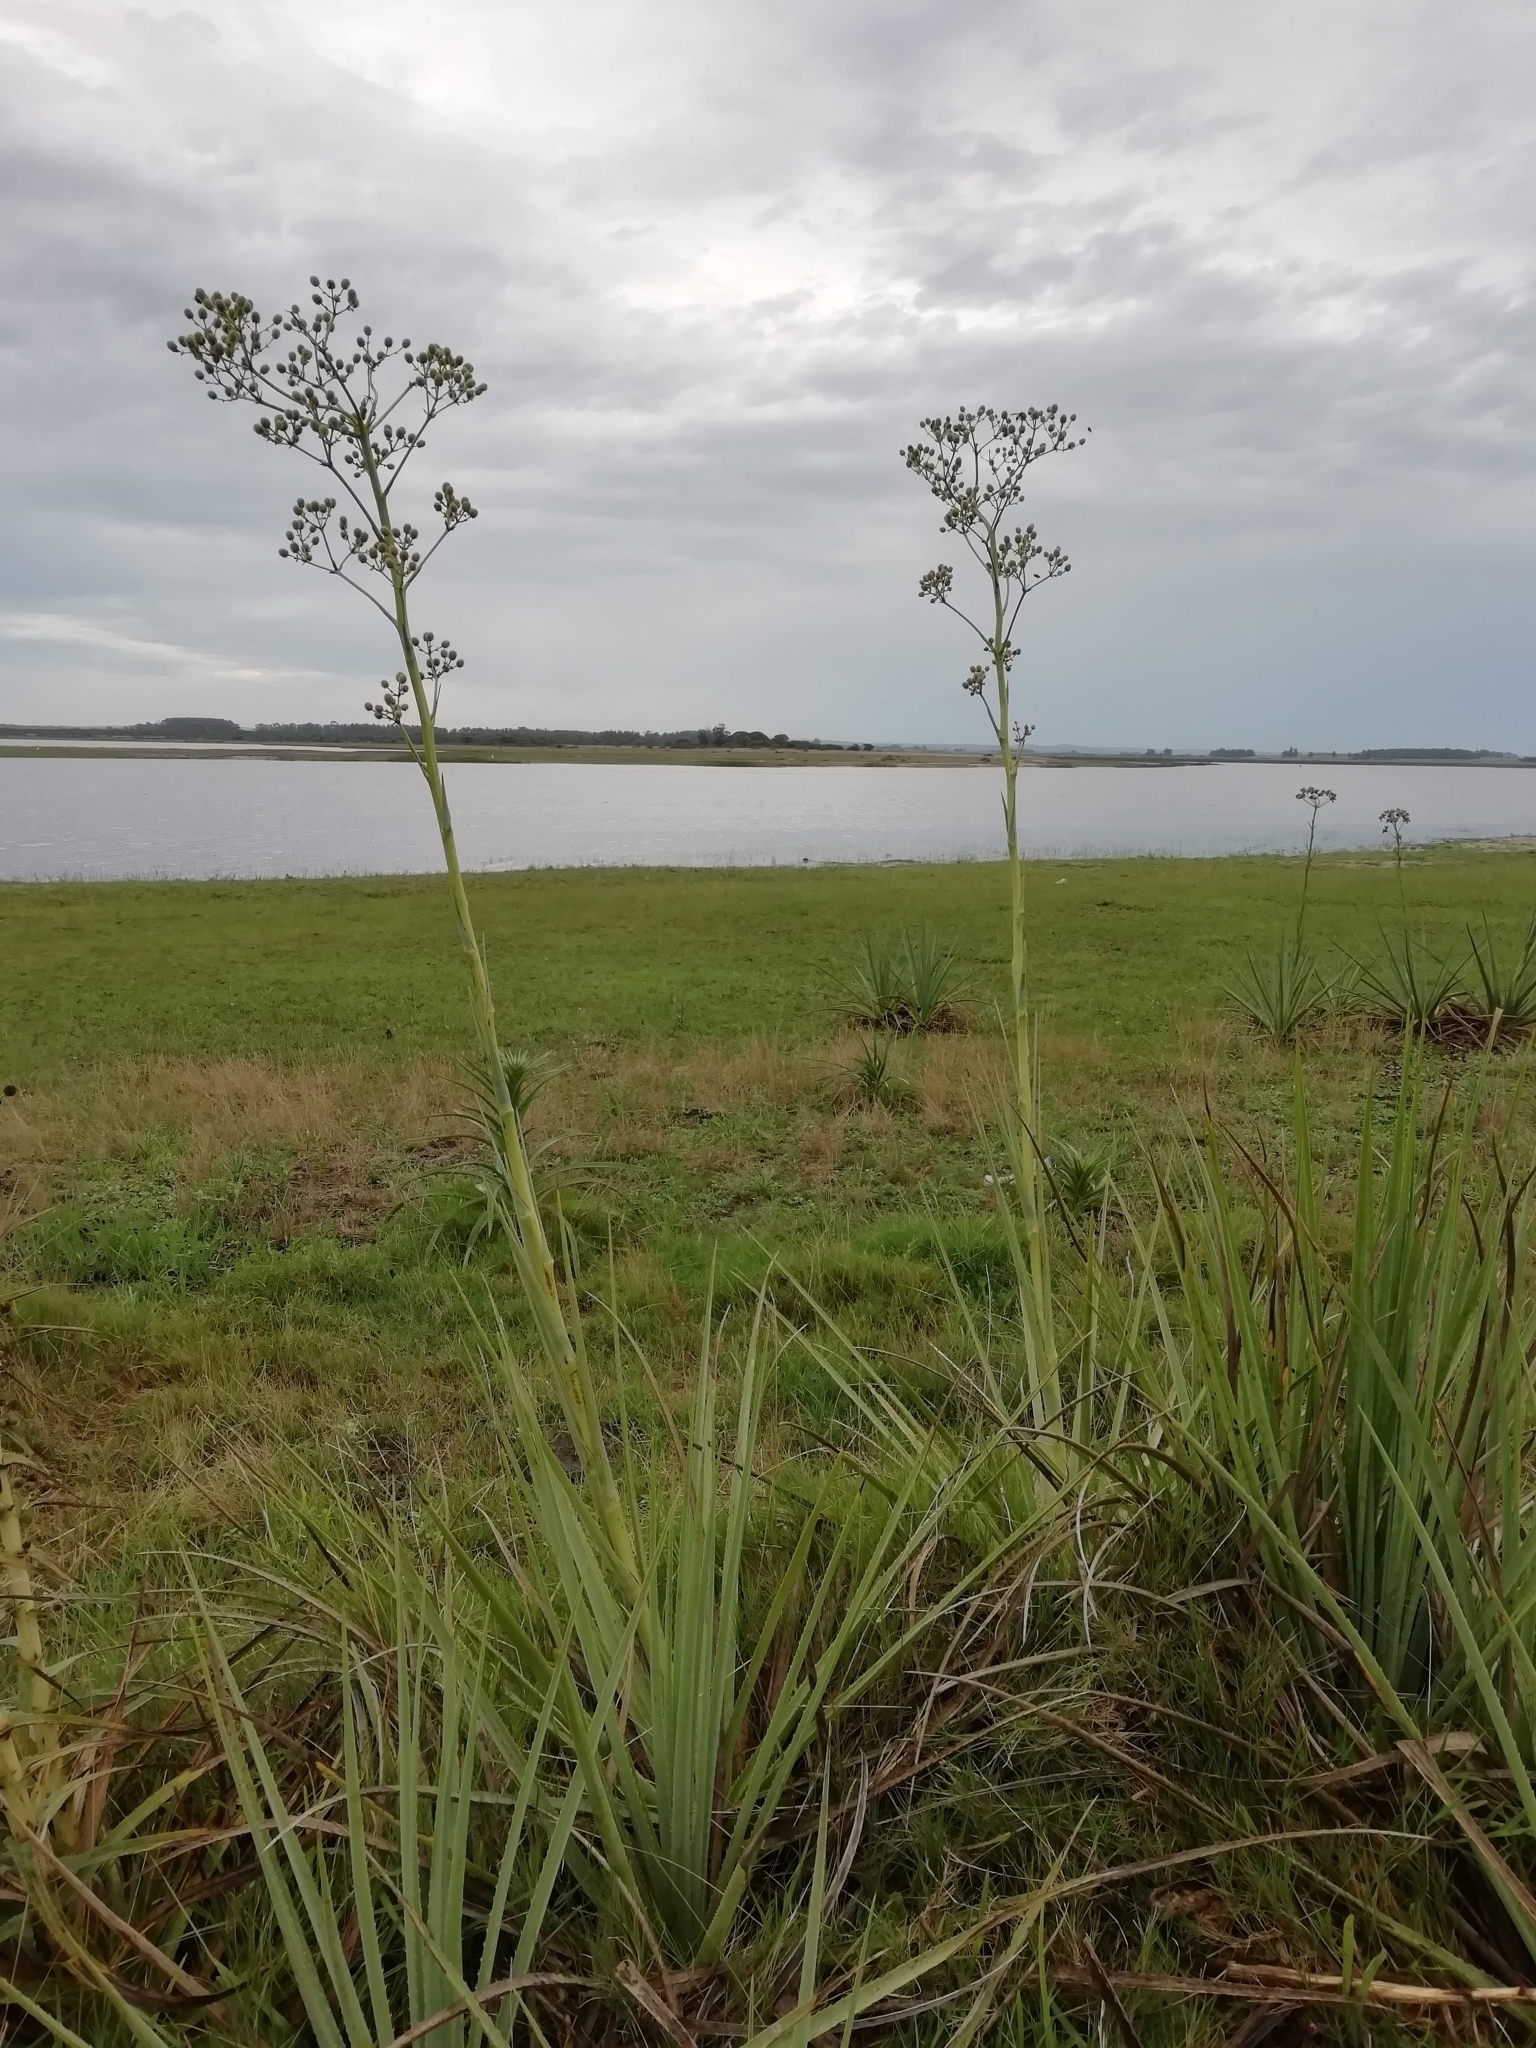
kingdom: Plantae
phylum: Tracheophyta
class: Magnoliopsida
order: Apiales
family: Apiaceae
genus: Eryngium
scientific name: Eryngium pandanifolium
